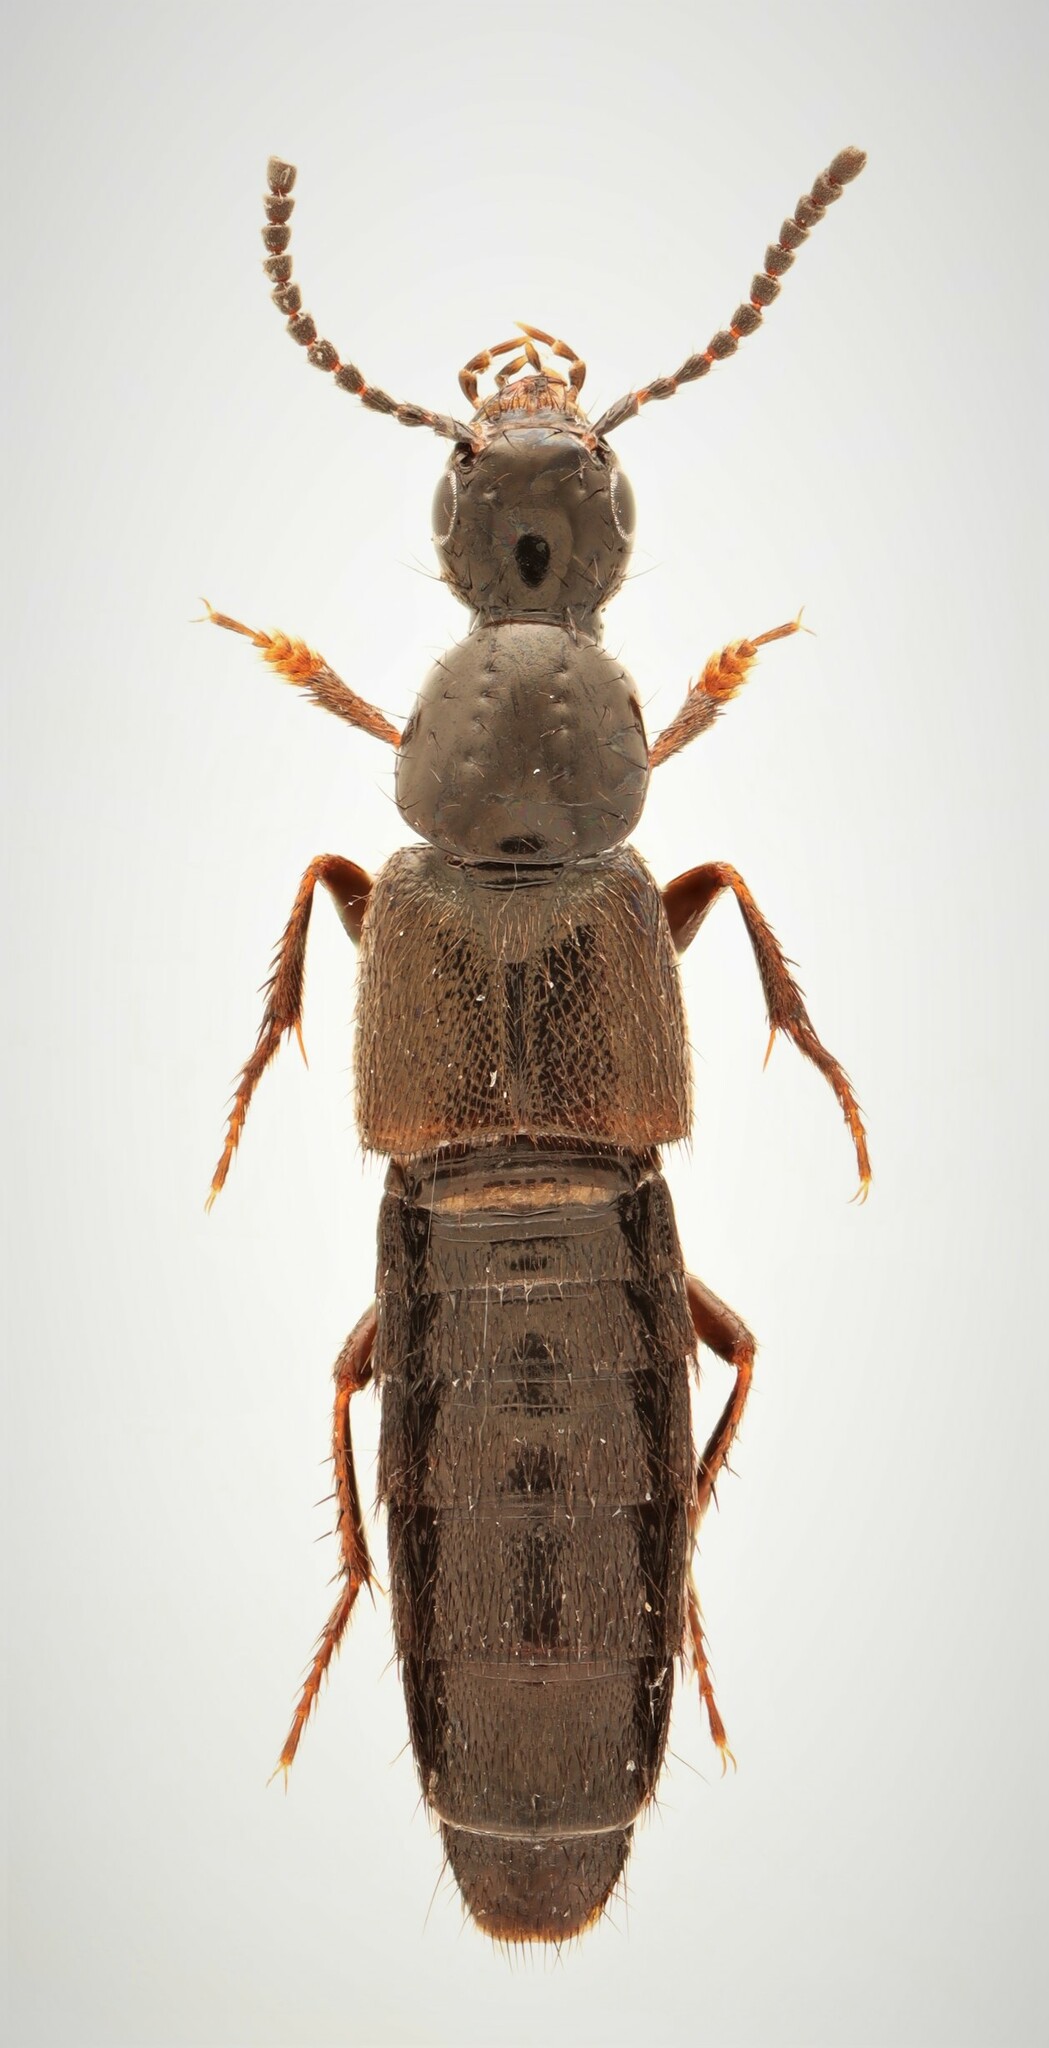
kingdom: Animalia
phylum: Arthropoda
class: Insecta
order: Coleoptera
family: Staphylinidae
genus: Philonthus
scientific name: Philonthus concinnus
